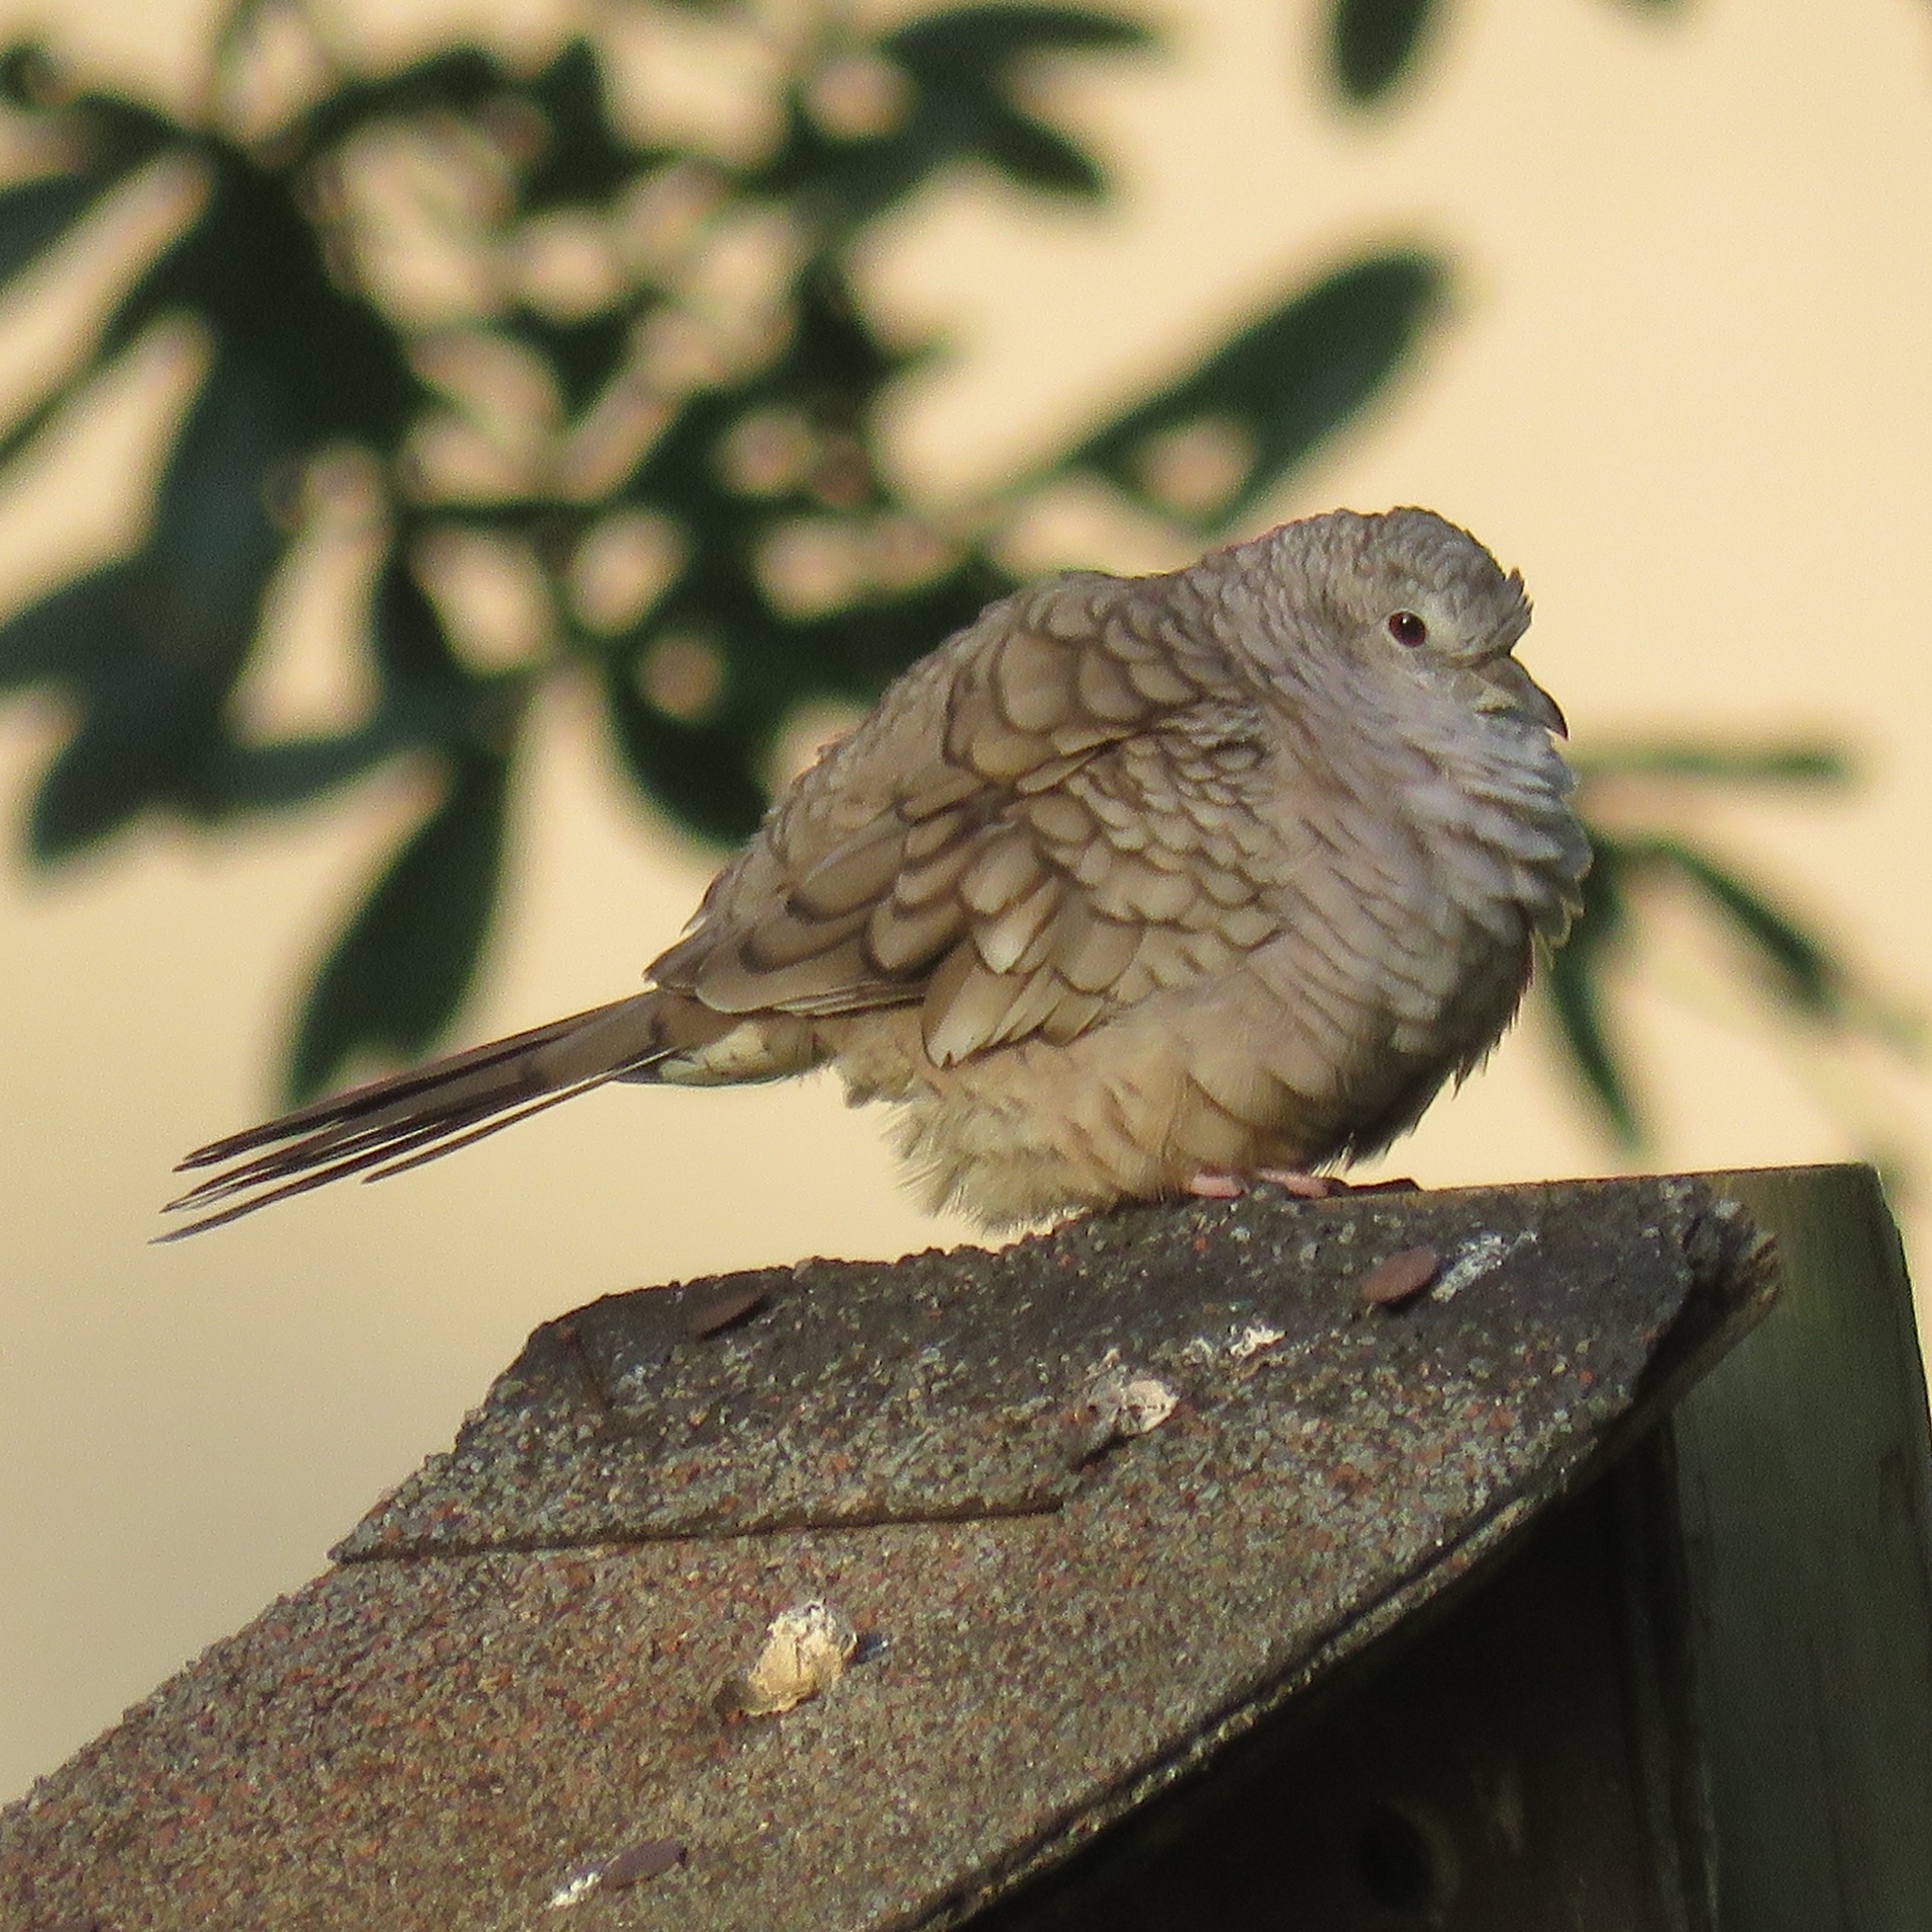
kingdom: Animalia
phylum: Chordata
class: Aves
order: Columbiformes
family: Columbidae
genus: Columbina
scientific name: Columbina inca
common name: Inca dove
